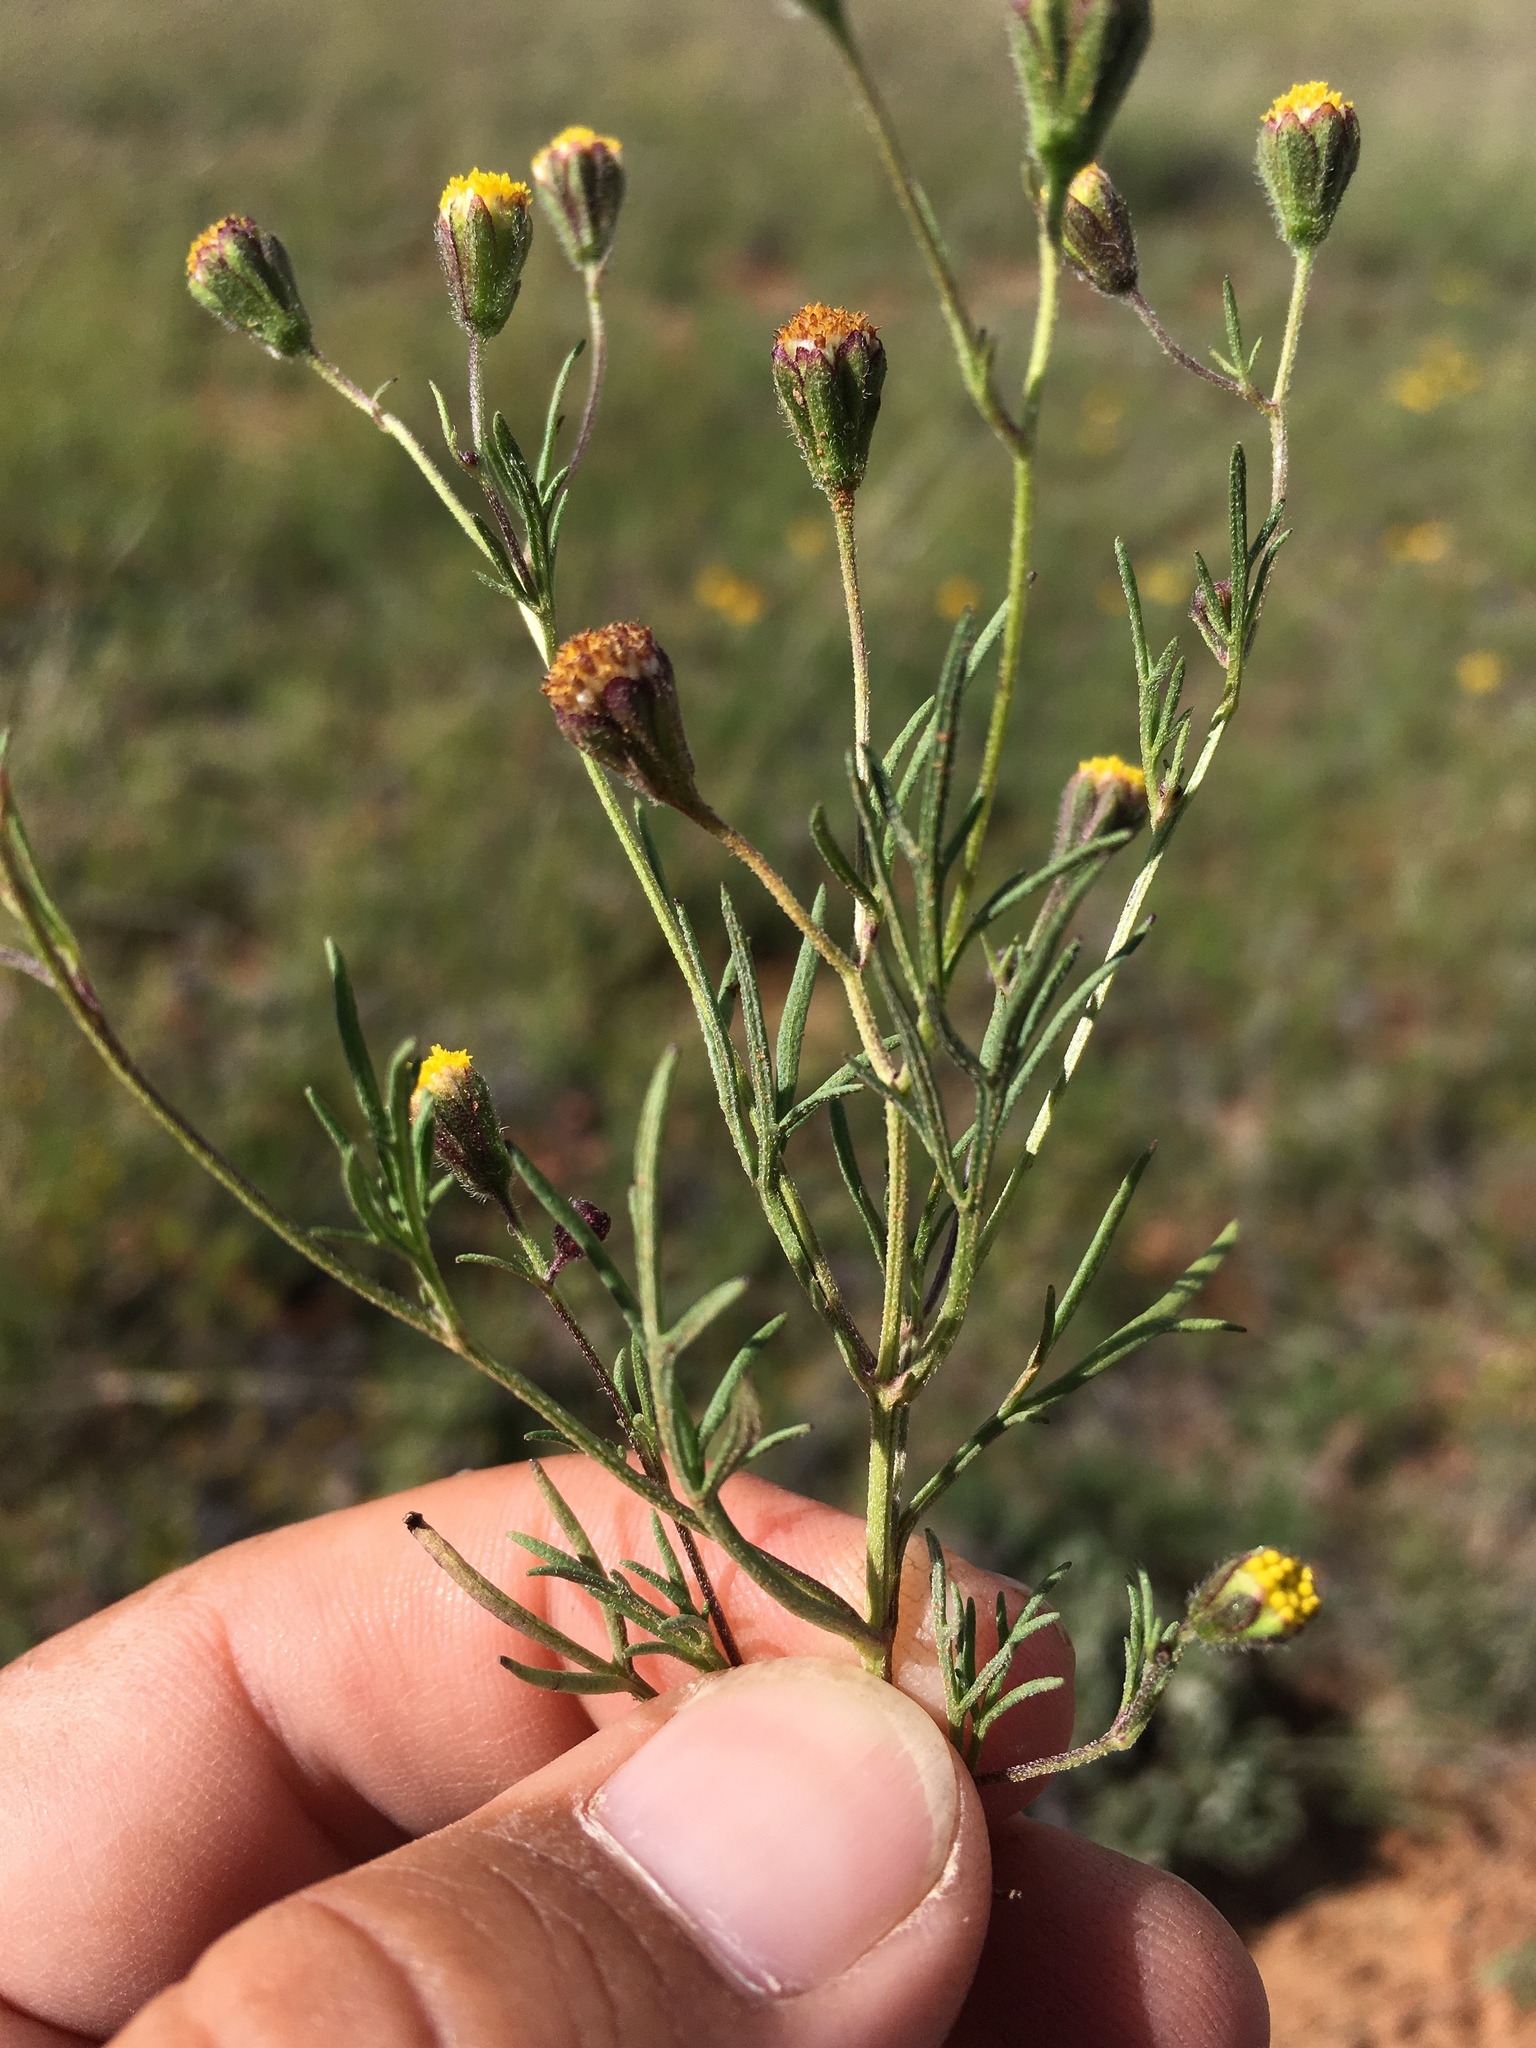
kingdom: Plantae
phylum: Tracheophyta
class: Magnoliopsida
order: Asterales
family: Asteraceae
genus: Picradeniopsis
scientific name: Picradeniopsis multiflora
